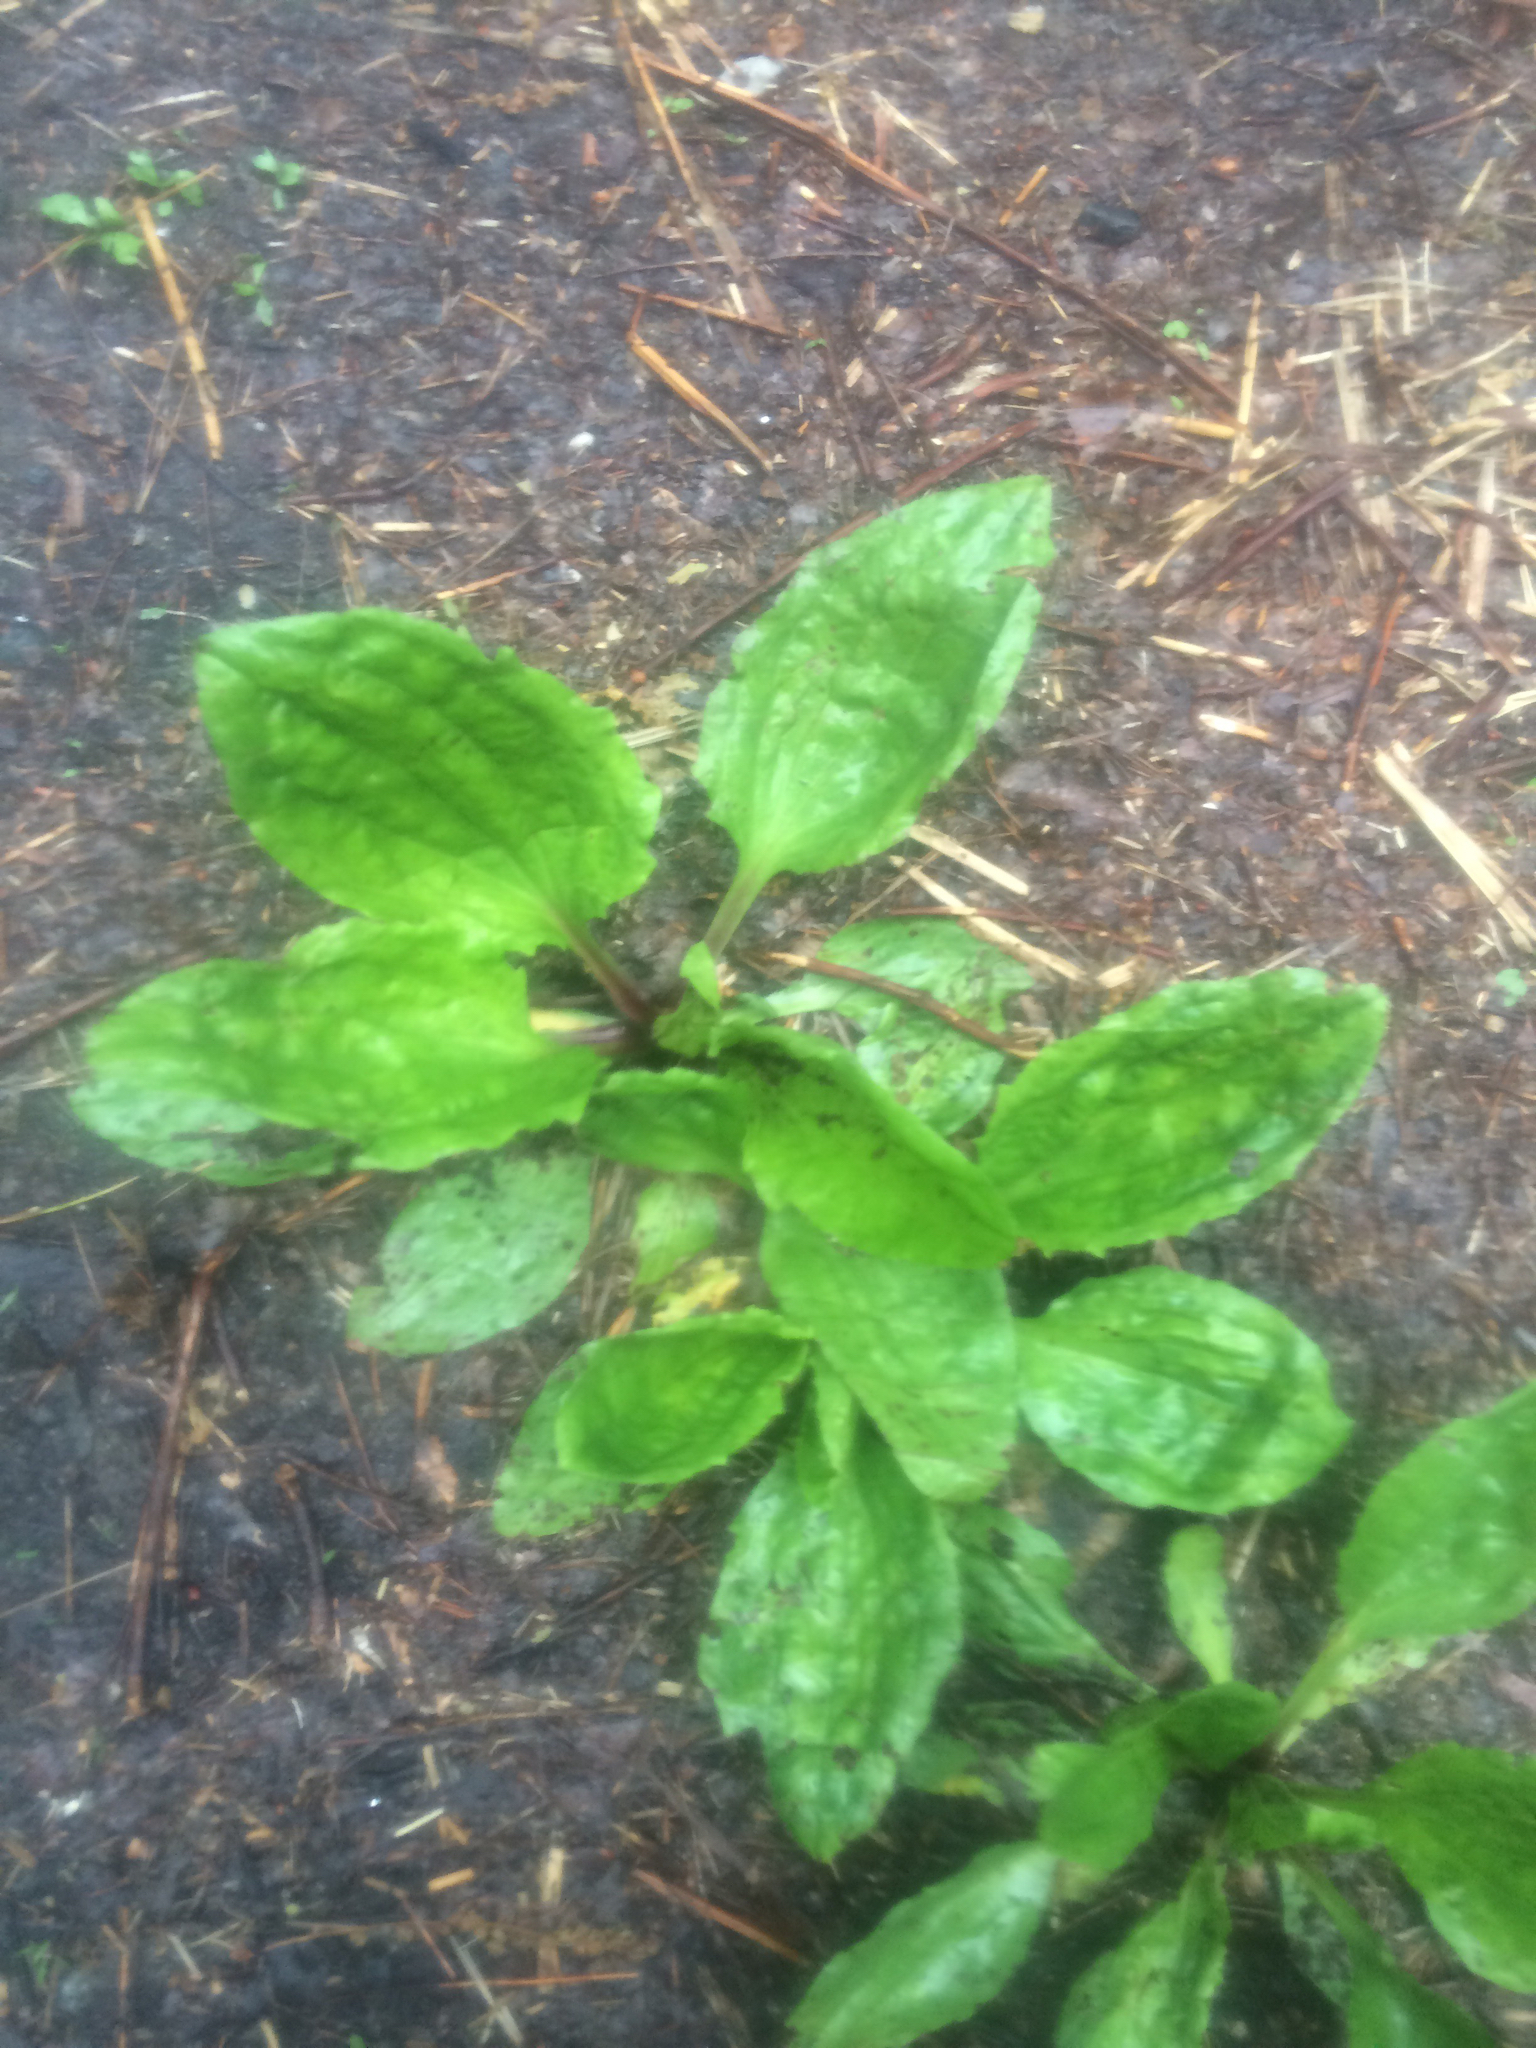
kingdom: Plantae
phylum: Tracheophyta
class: Magnoliopsida
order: Lamiales
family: Plantaginaceae
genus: Plantago
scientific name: Plantago rugelii
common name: American plantain
